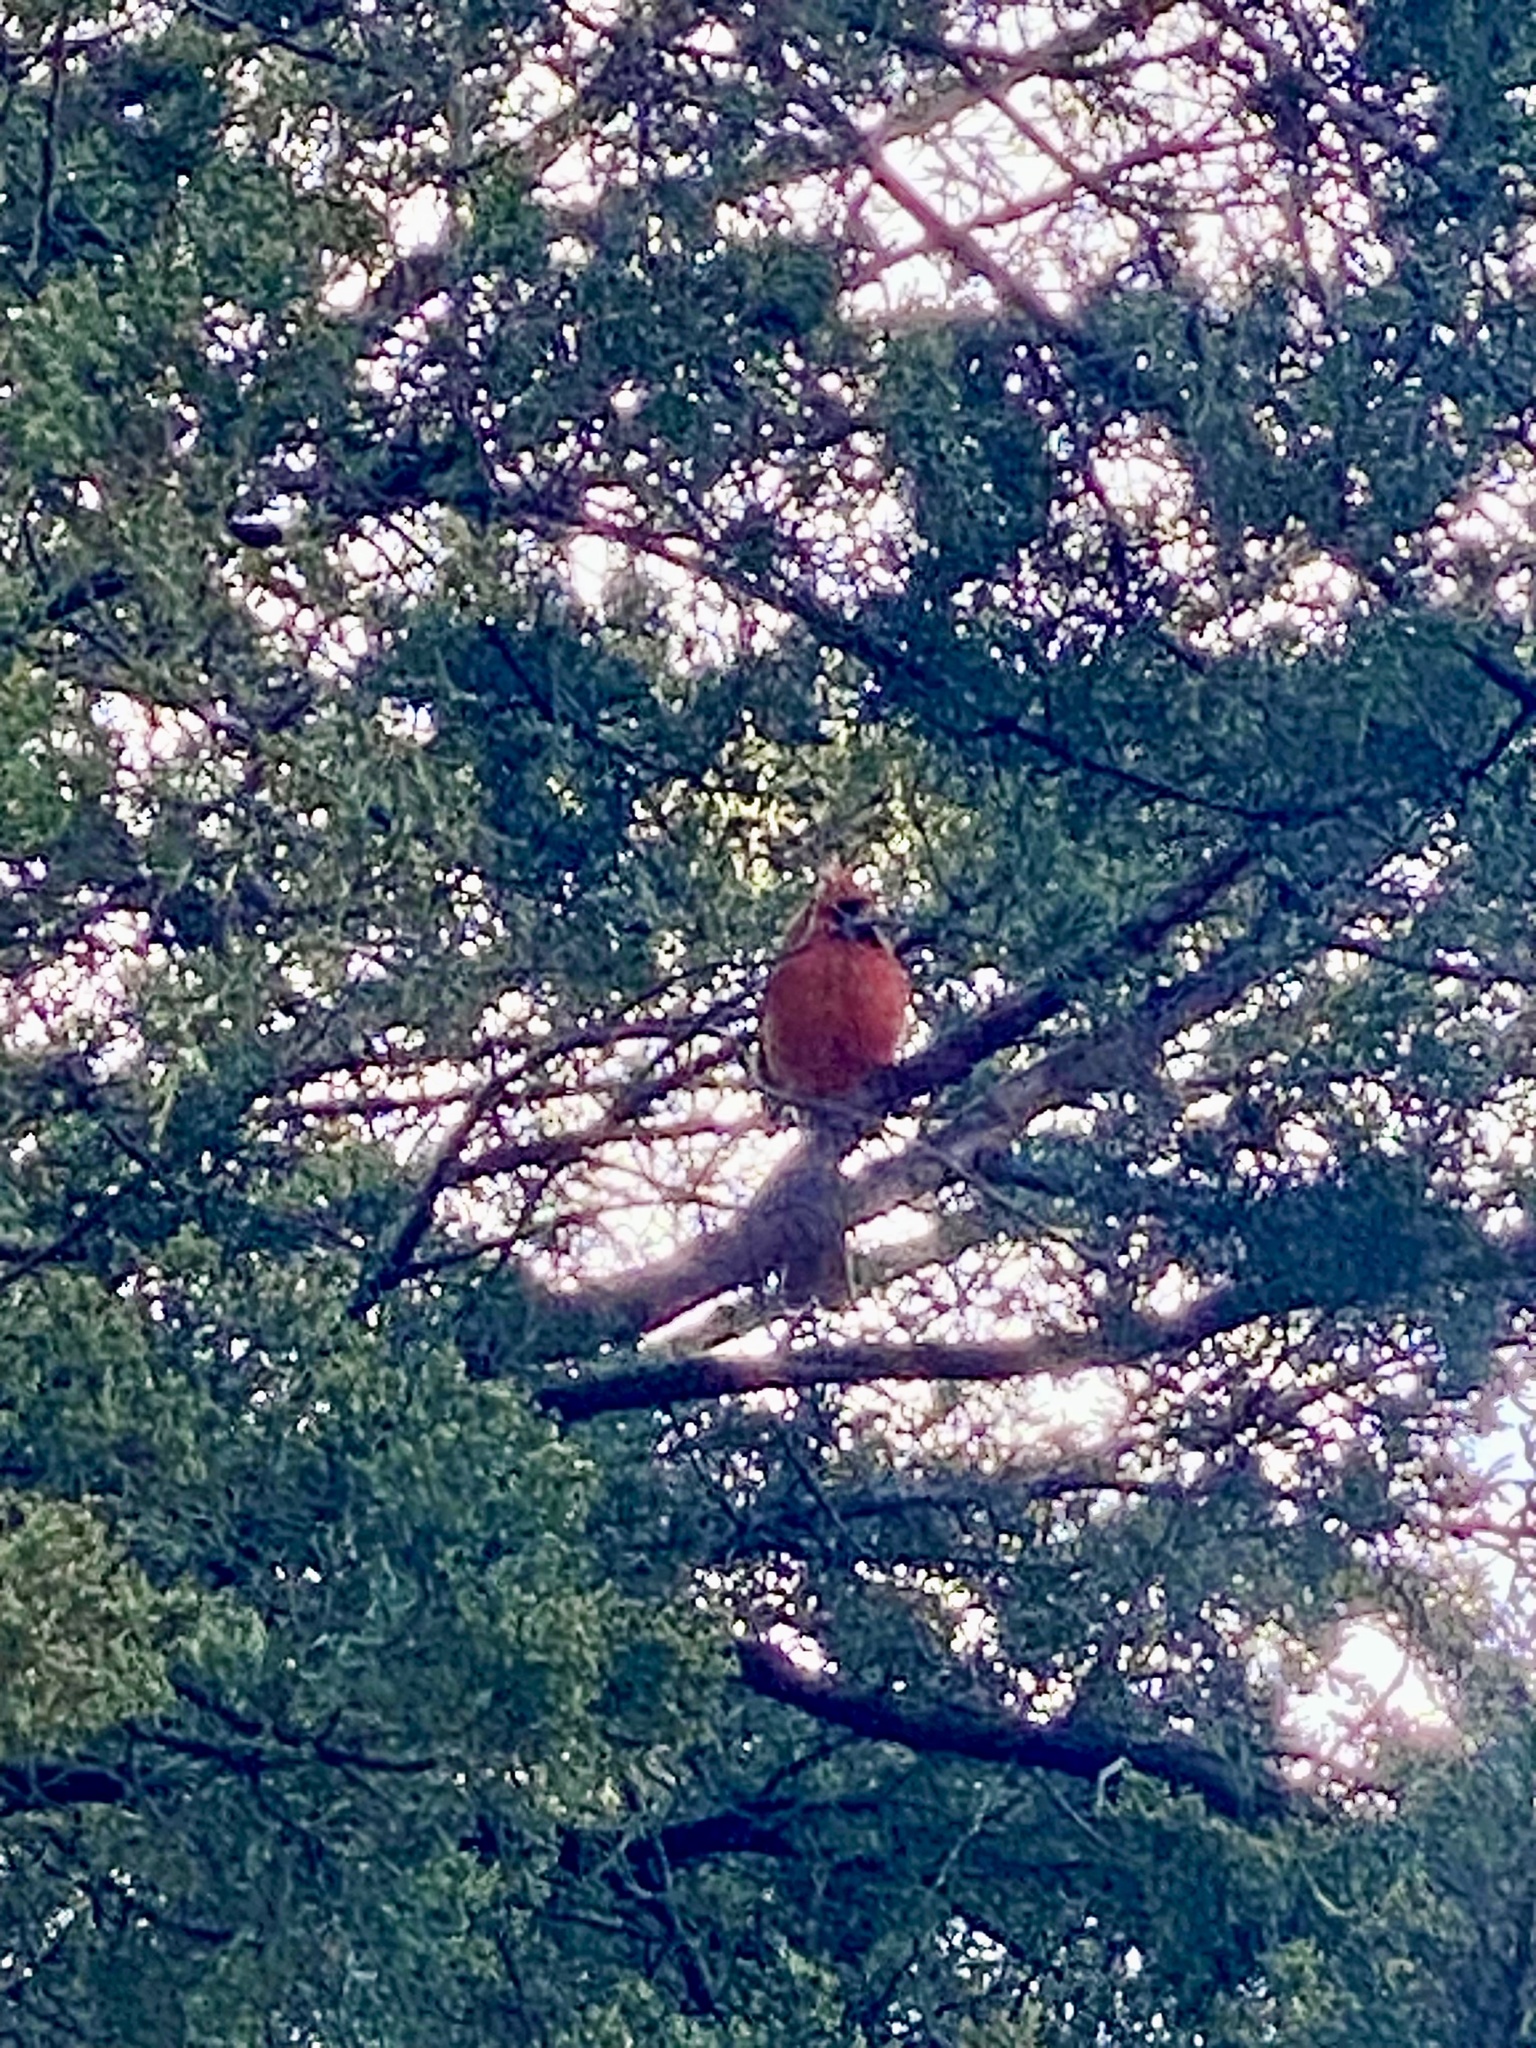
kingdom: Animalia
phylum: Chordata
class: Aves
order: Passeriformes
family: Cardinalidae
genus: Cardinalis
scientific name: Cardinalis cardinalis
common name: Northern cardinal
